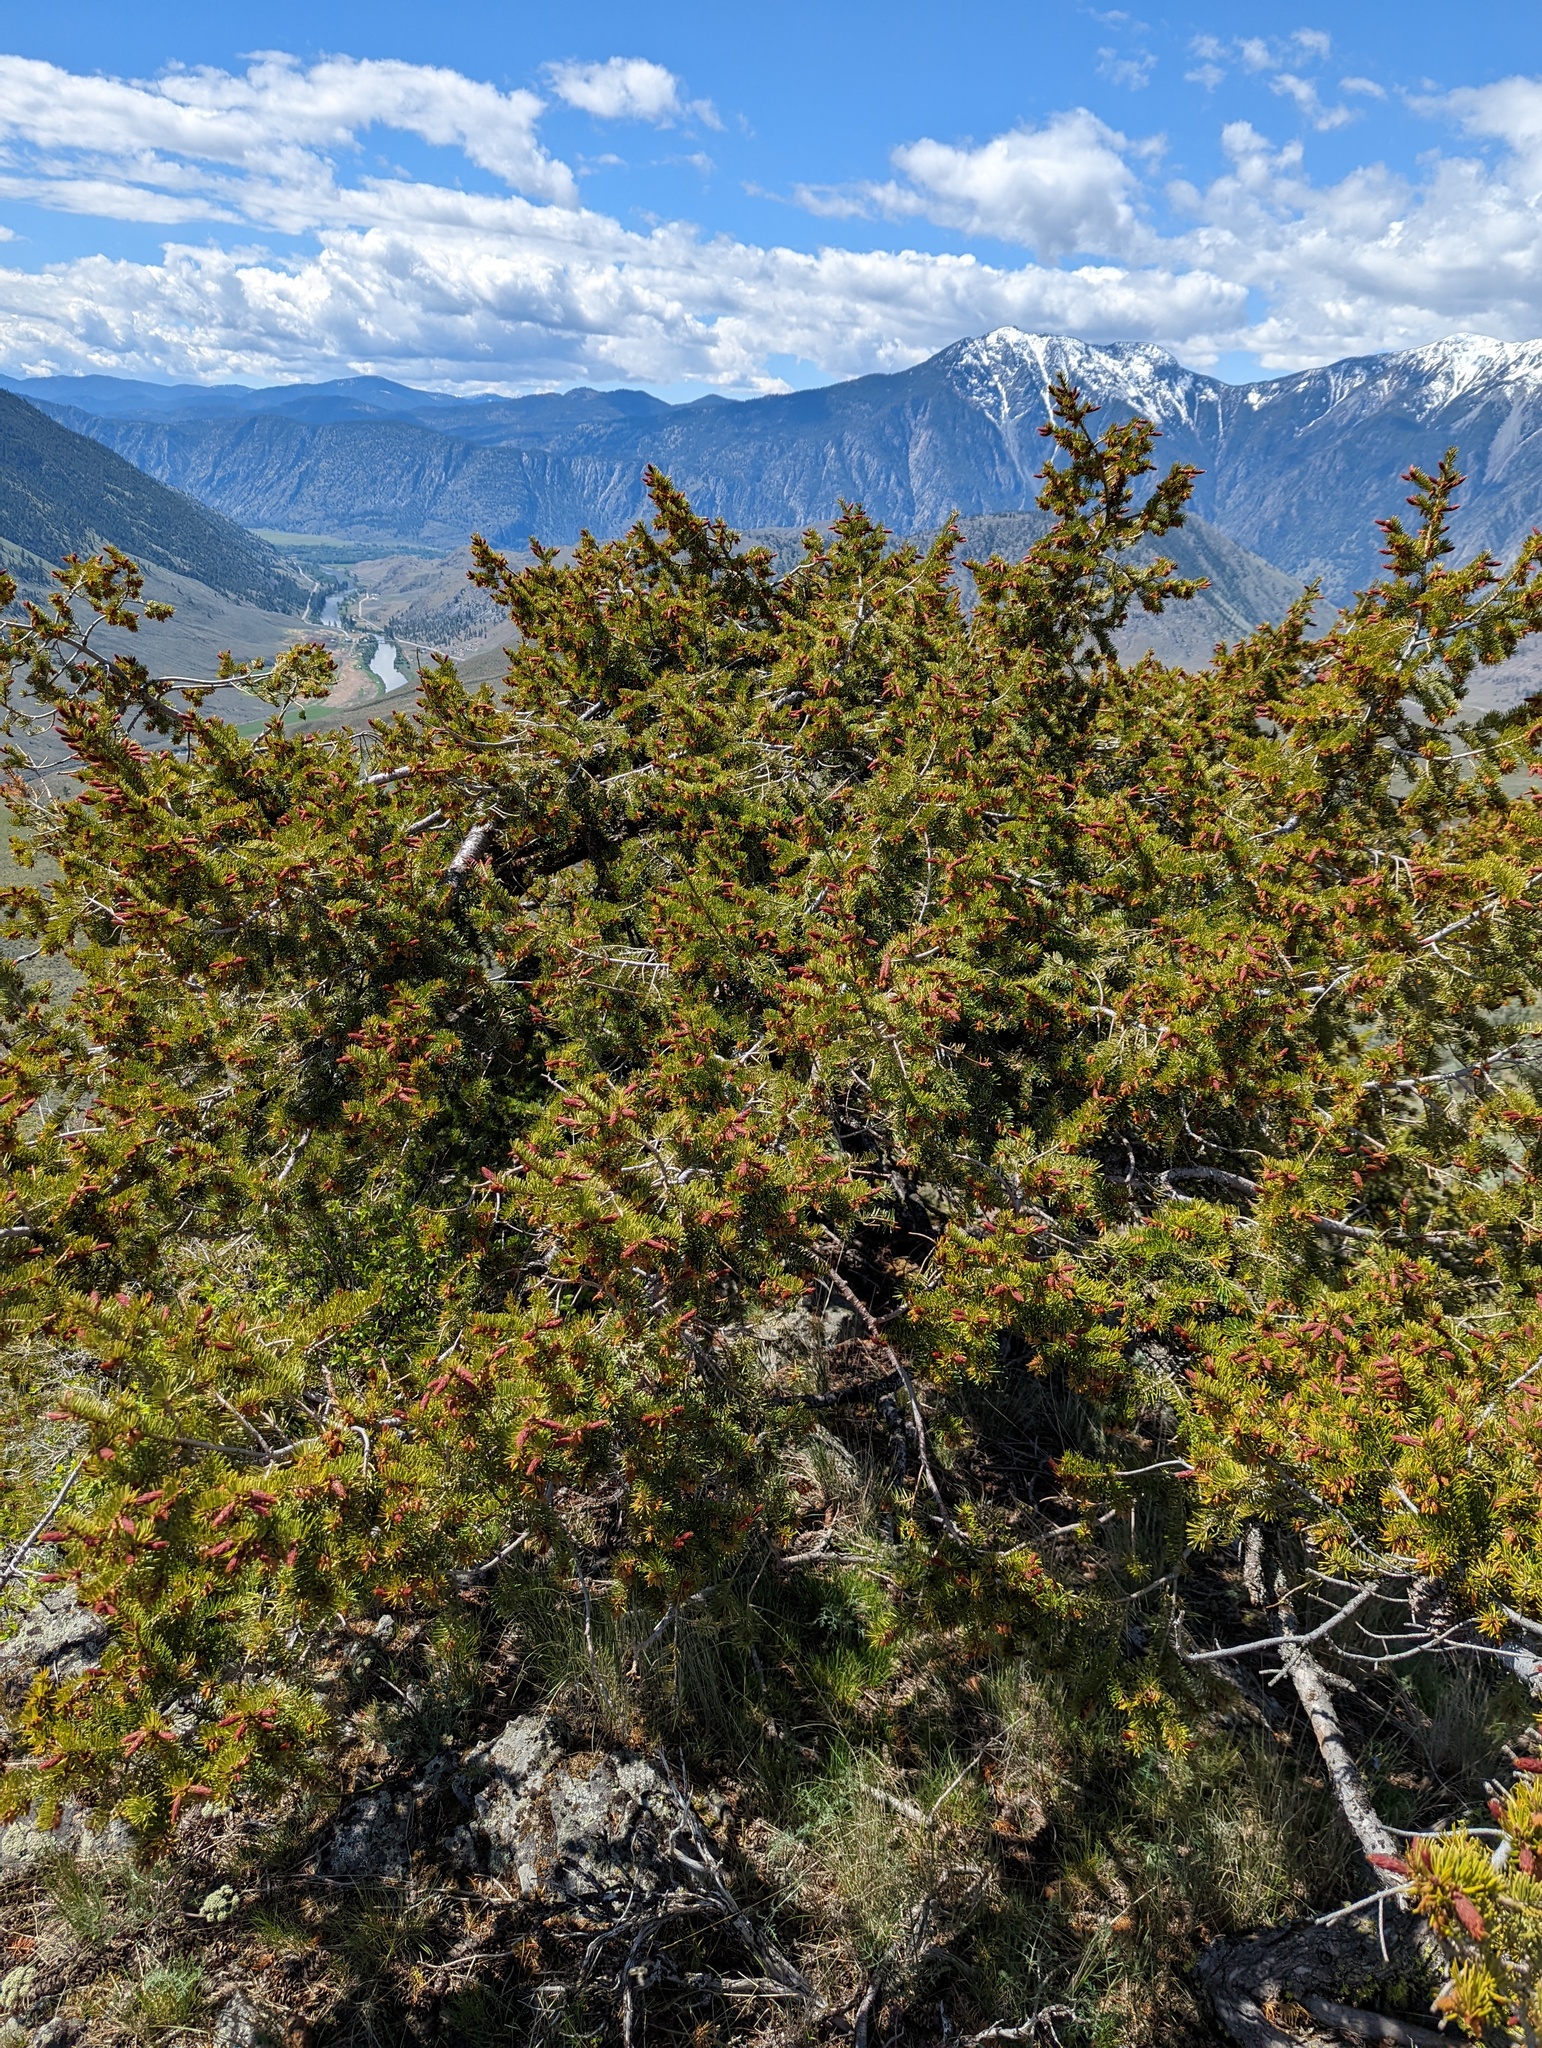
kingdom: Plantae
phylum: Tracheophyta
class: Pinopsida
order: Pinales
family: Pinaceae
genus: Pseudotsuga
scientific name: Pseudotsuga menziesii
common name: Douglas fir
